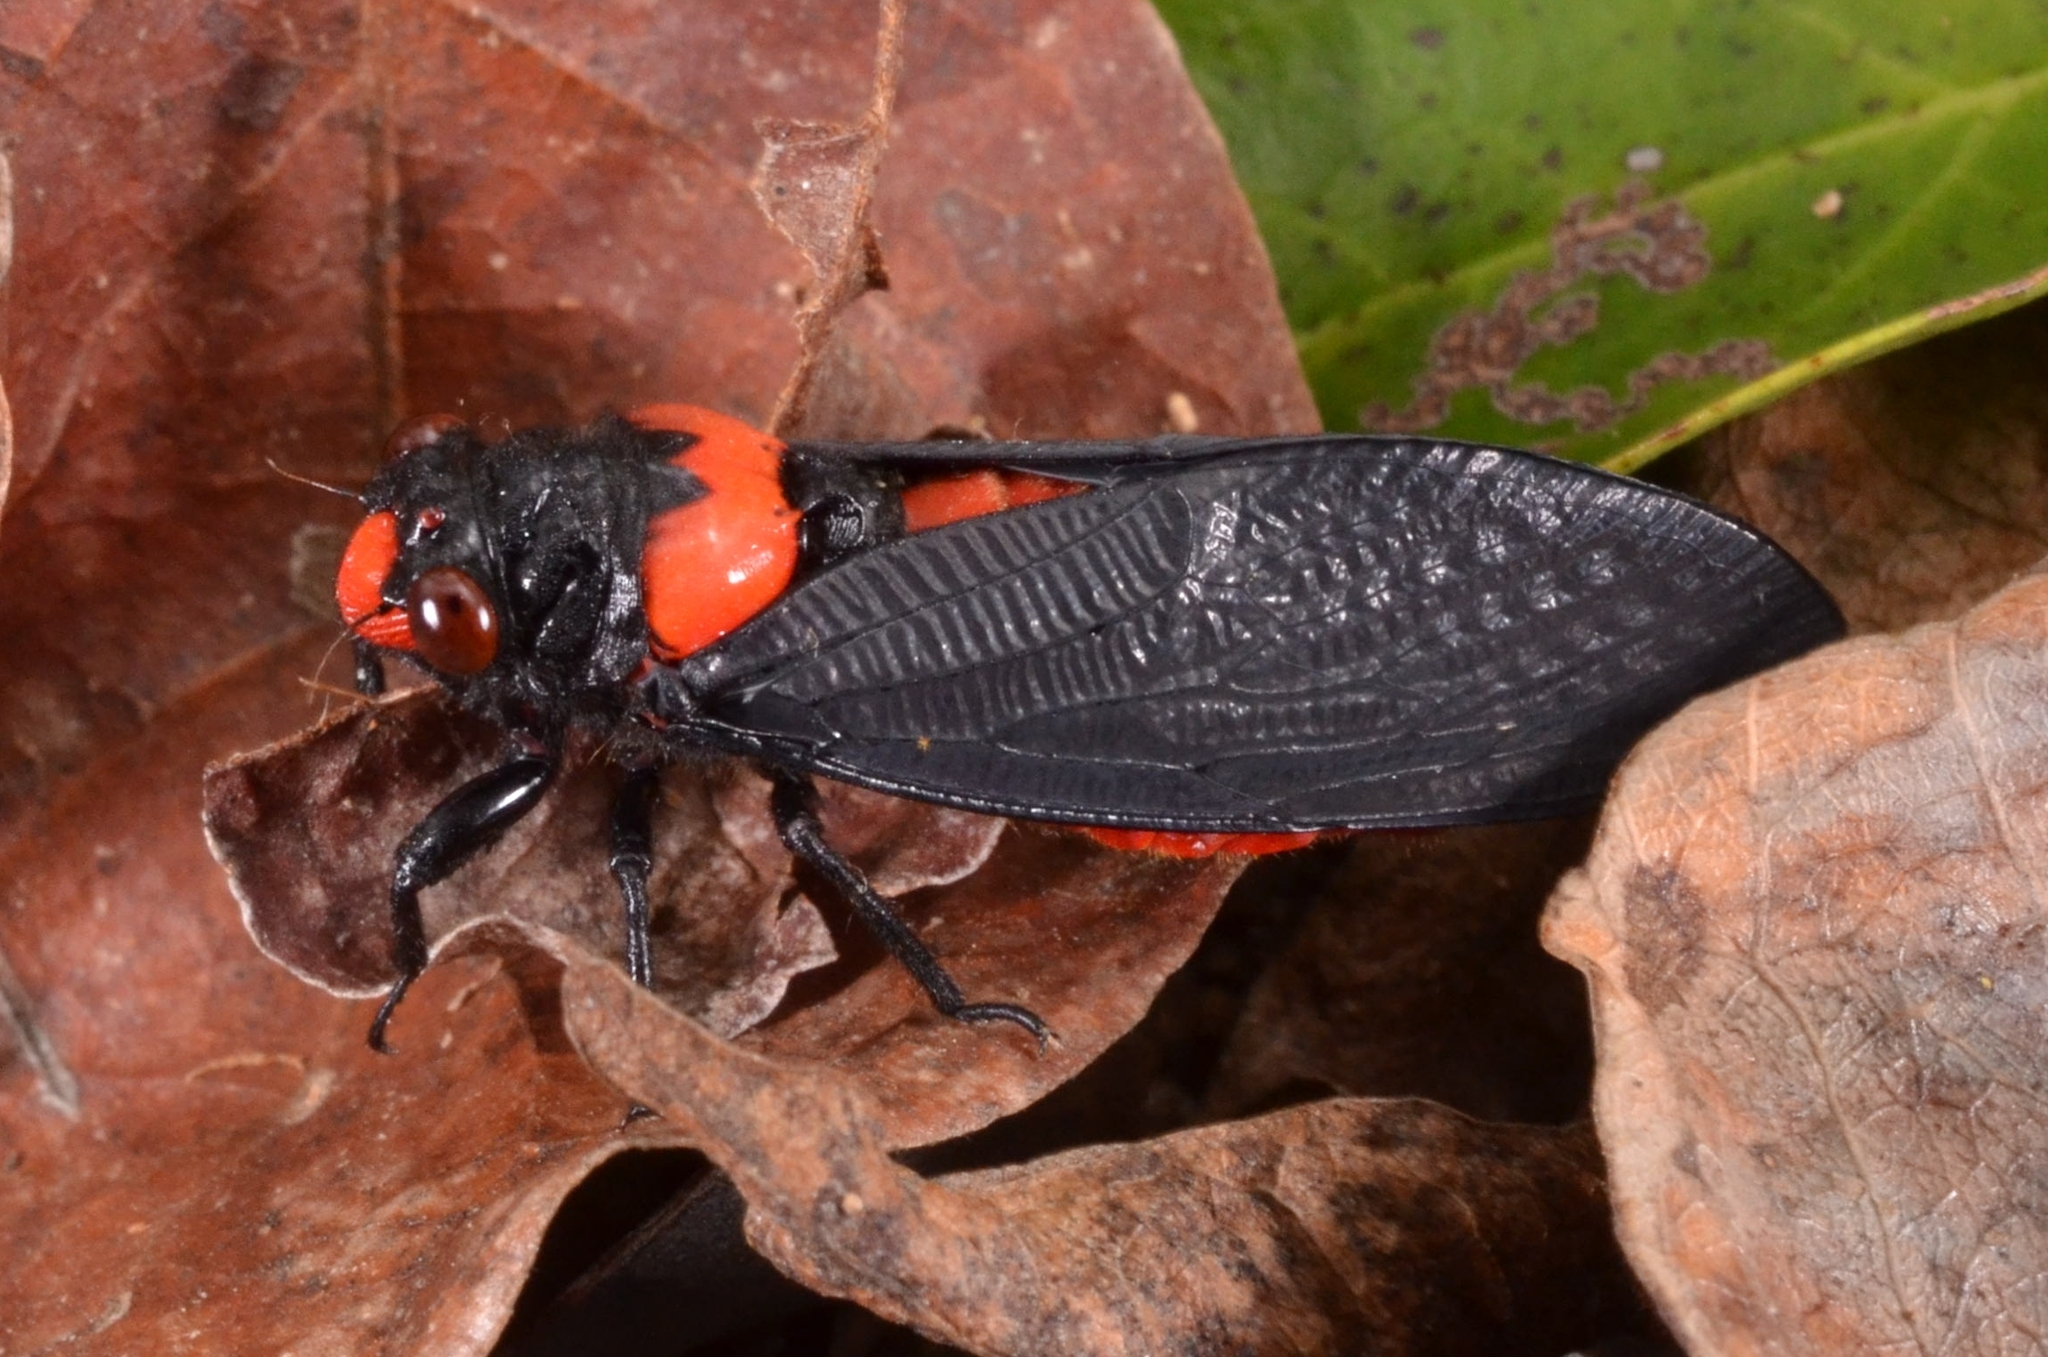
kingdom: Animalia
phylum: Arthropoda
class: Insecta
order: Hemiptera
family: Cicadidae
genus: Huechys
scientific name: Huechys sanguinea
